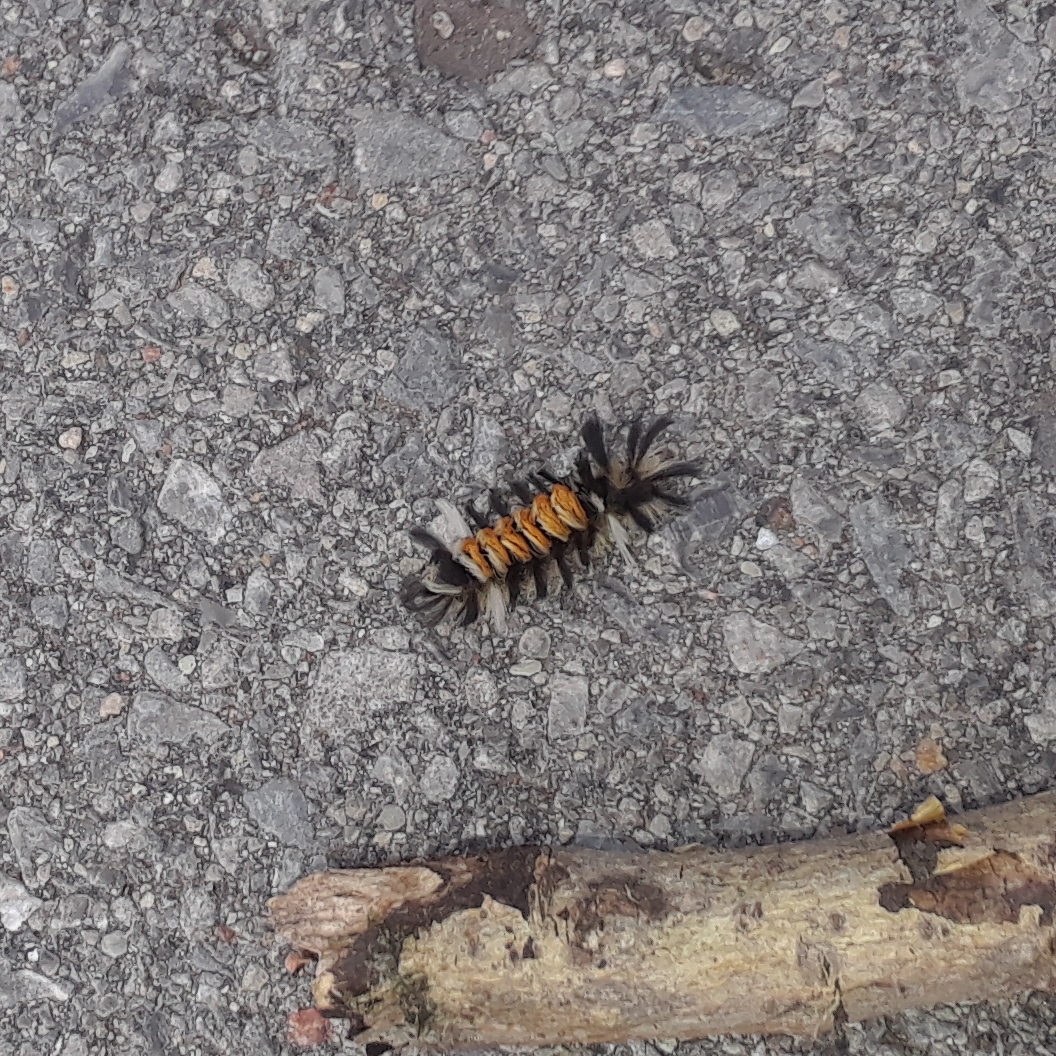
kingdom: Animalia
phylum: Arthropoda
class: Insecta
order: Lepidoptera
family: Erebidae
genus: Euchaetes
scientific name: Euchaetes egle
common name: Milkweed tussock moth
